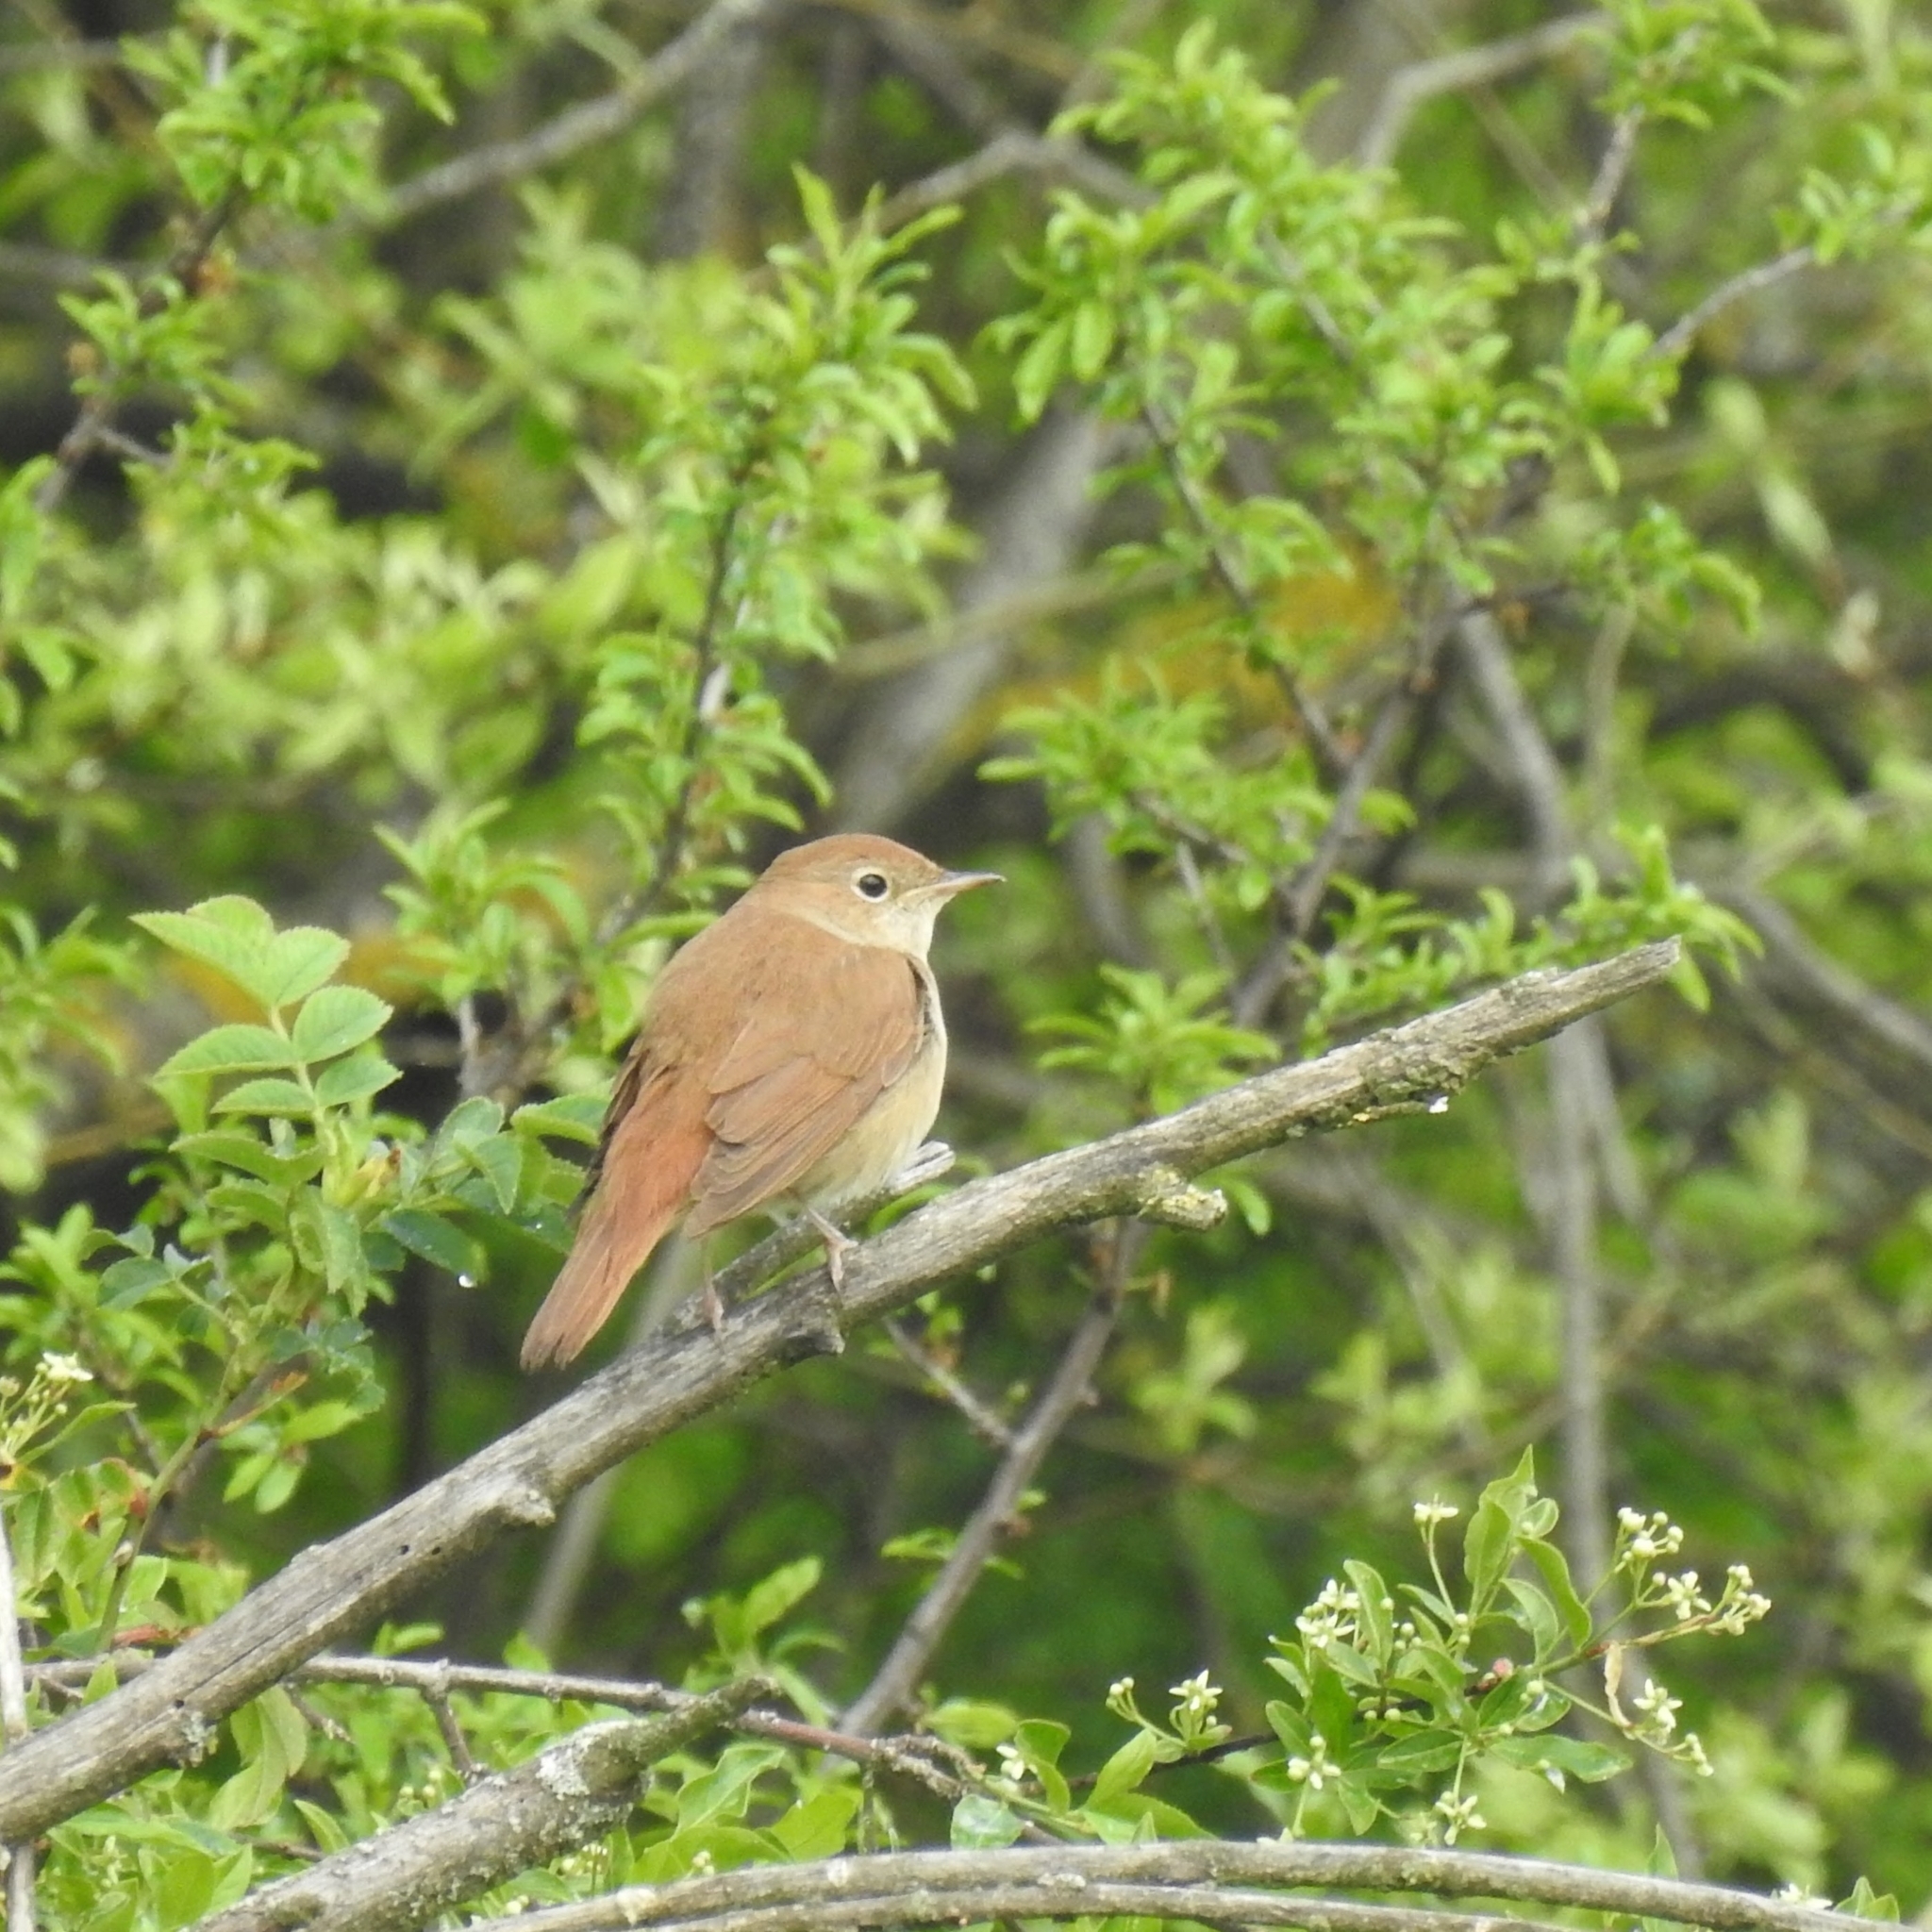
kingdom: Animalia
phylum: Chordata
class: Aves
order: Passeriformes
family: Muscicapidae
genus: Luscinia
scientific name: Luscinia megarhynchos
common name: Common nightingale
